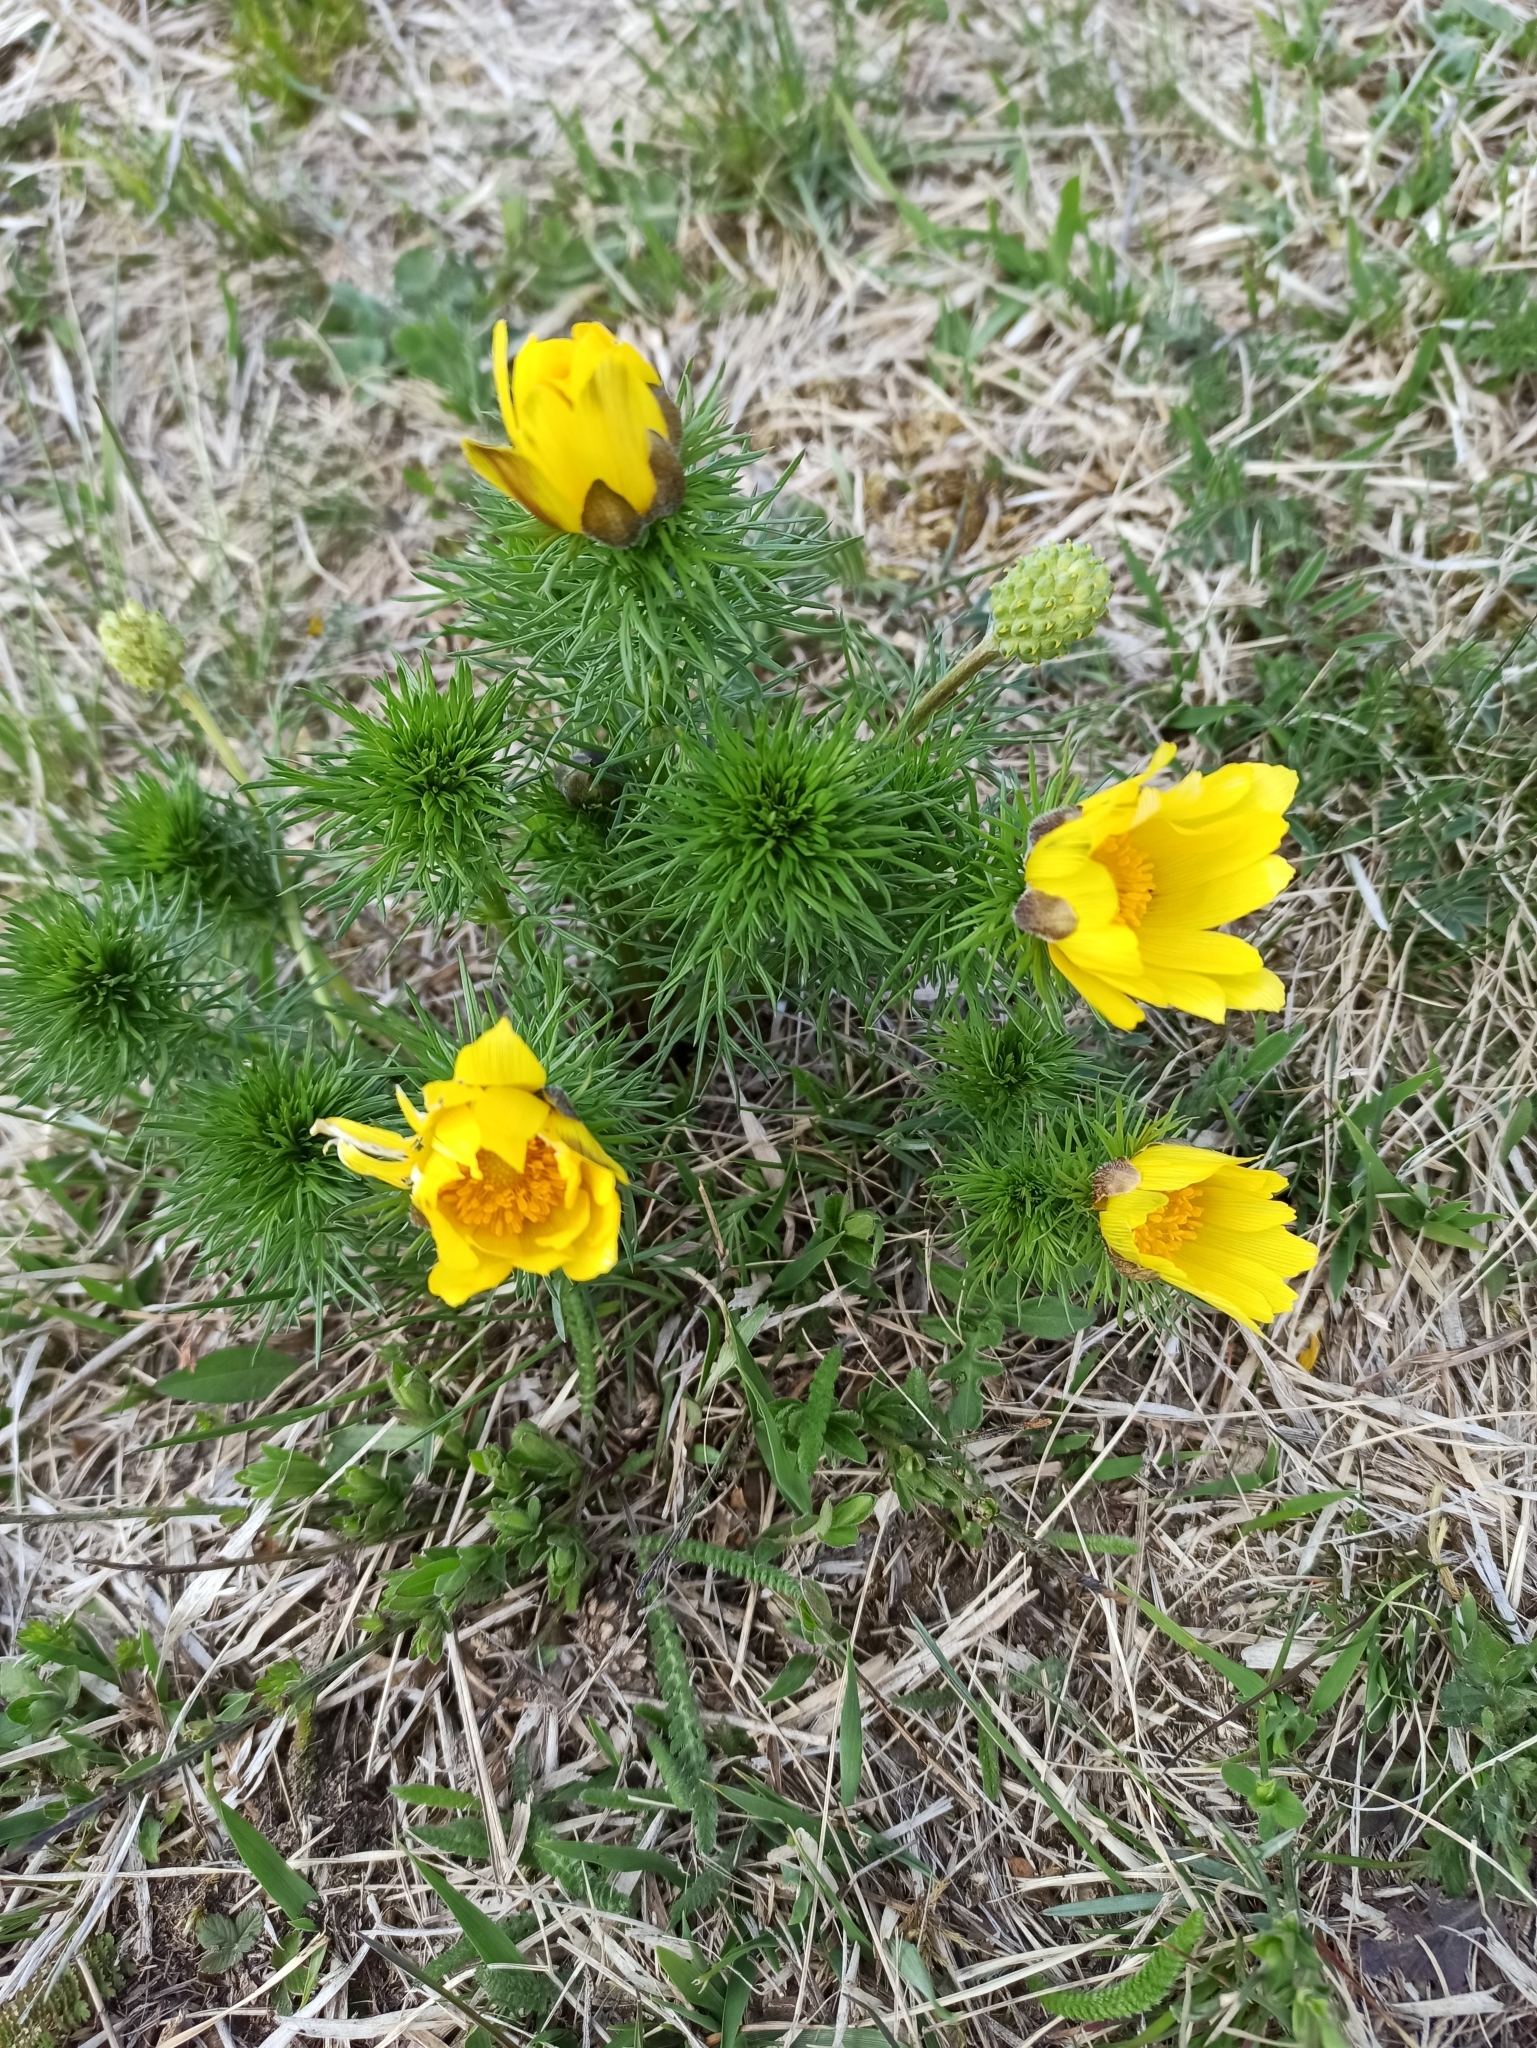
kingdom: Plantae
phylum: Tracheophyta
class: Magnoliopsida
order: Ranunculales
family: Ranunculaceae
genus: Adonis
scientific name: Adonis vernalis
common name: Yellow pheasants-eye
